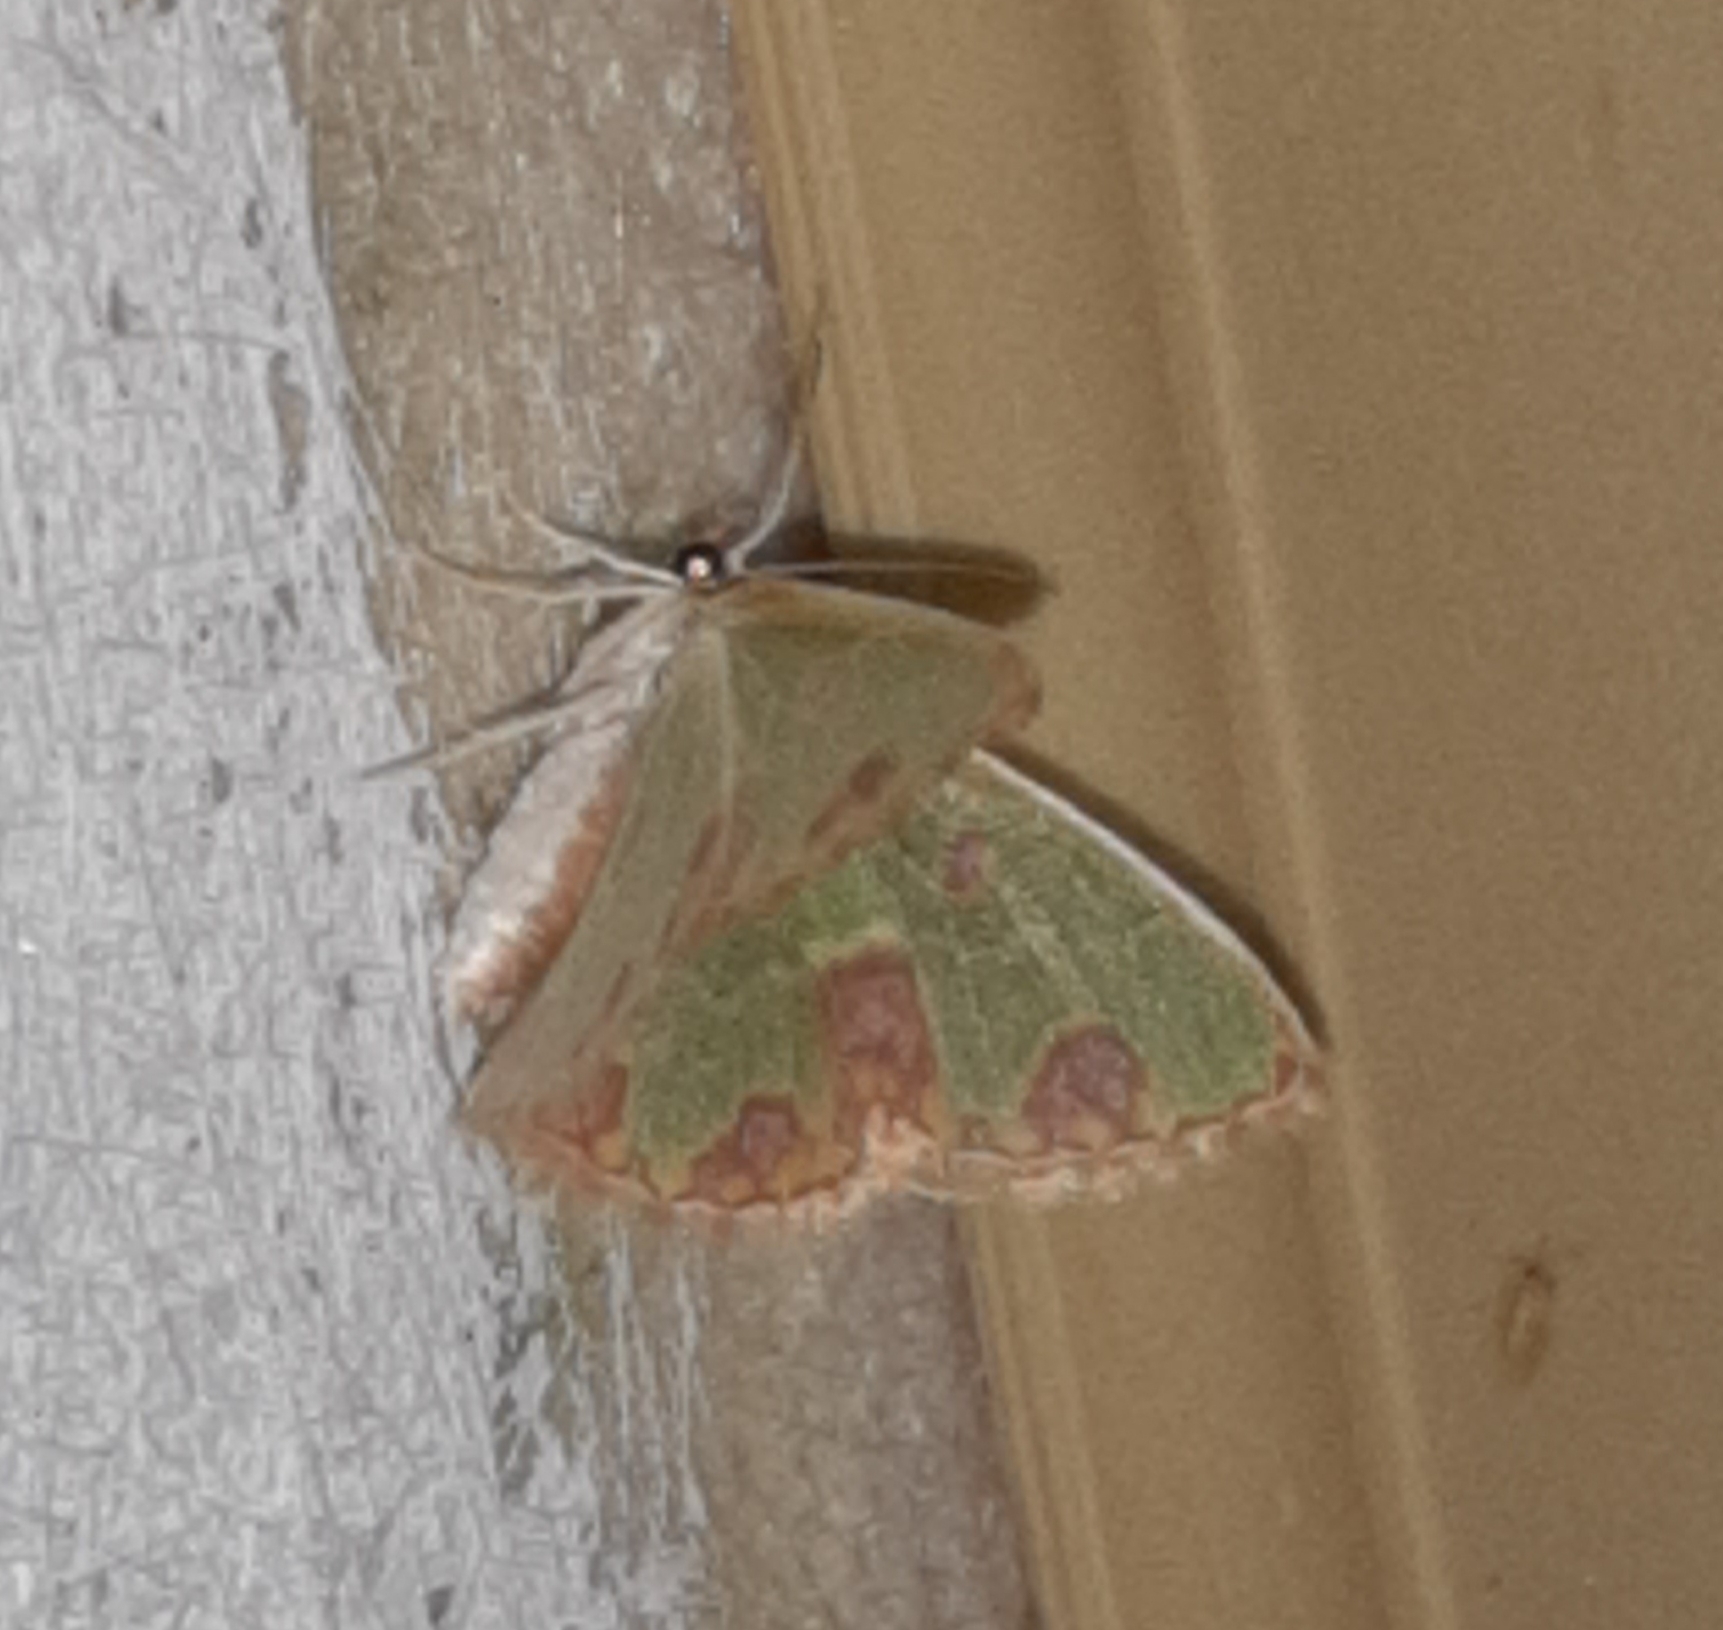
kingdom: Animalia
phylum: Arthropoda
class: Insecta
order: Lepidoptera
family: Geometridae
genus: Synchlora
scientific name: Synchlora gerularia
